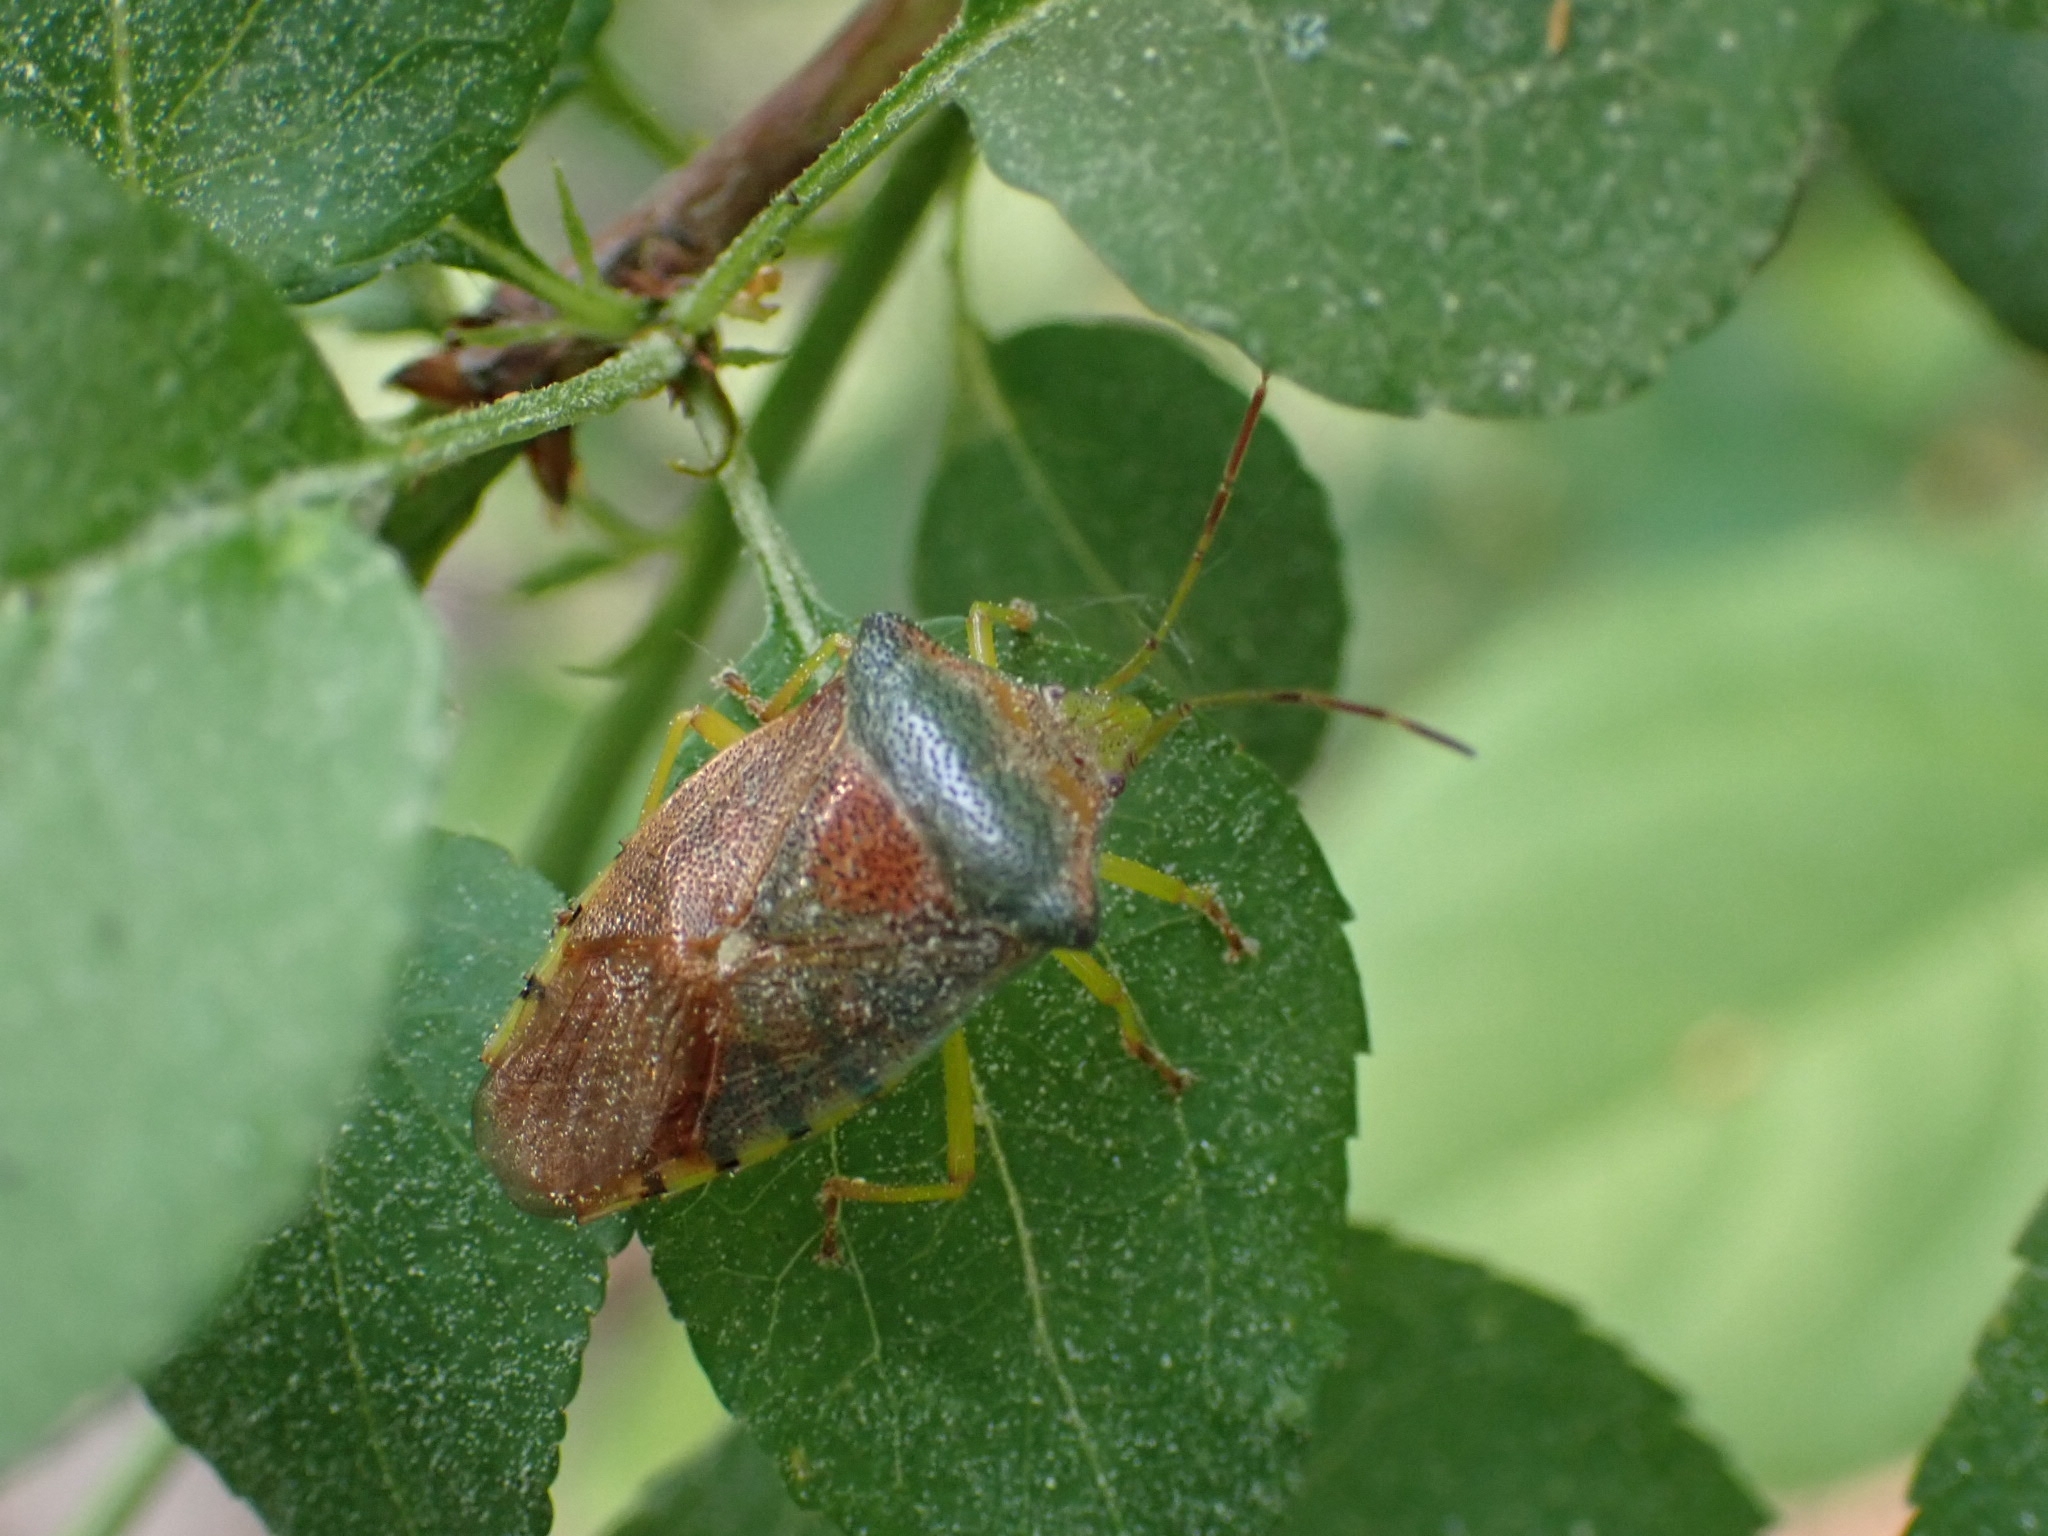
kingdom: Animalia
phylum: Arthropoda
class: Insecta
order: Hemiptera
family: Acanthosomatidae
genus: Acanthosoma
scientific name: Acanthosoma denticaudum
